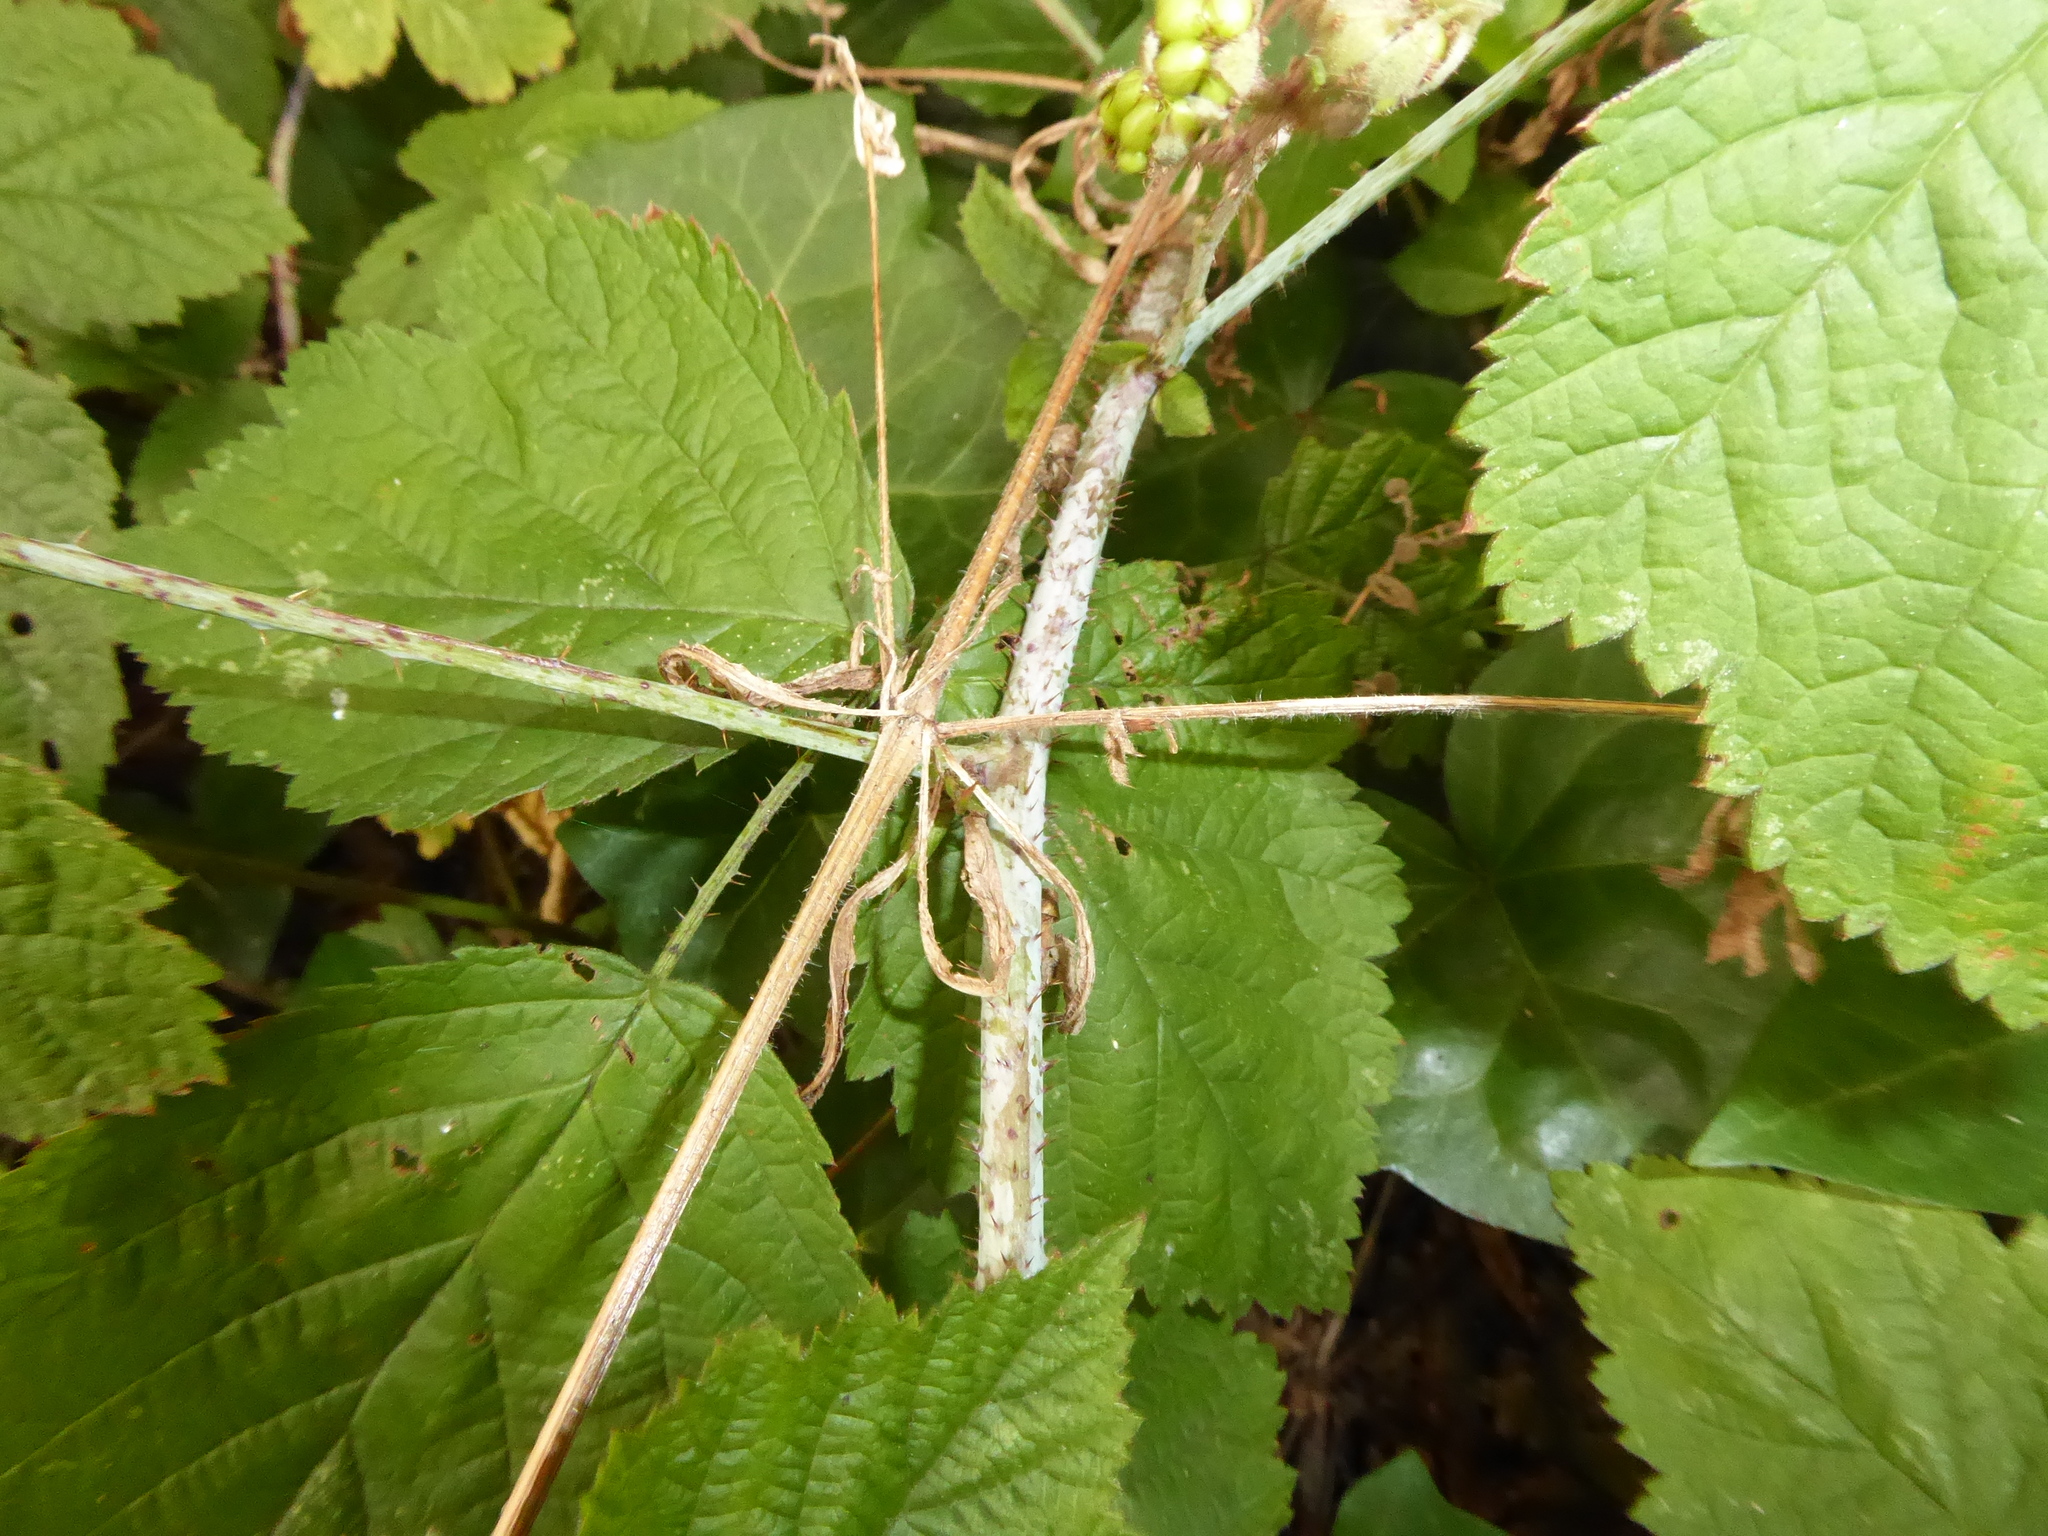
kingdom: Plantae
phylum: Tracheophyta
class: Magnoliopsida
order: Rosales
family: Rosaceae
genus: Rubus
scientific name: Rubus caesius
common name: Dewberry
